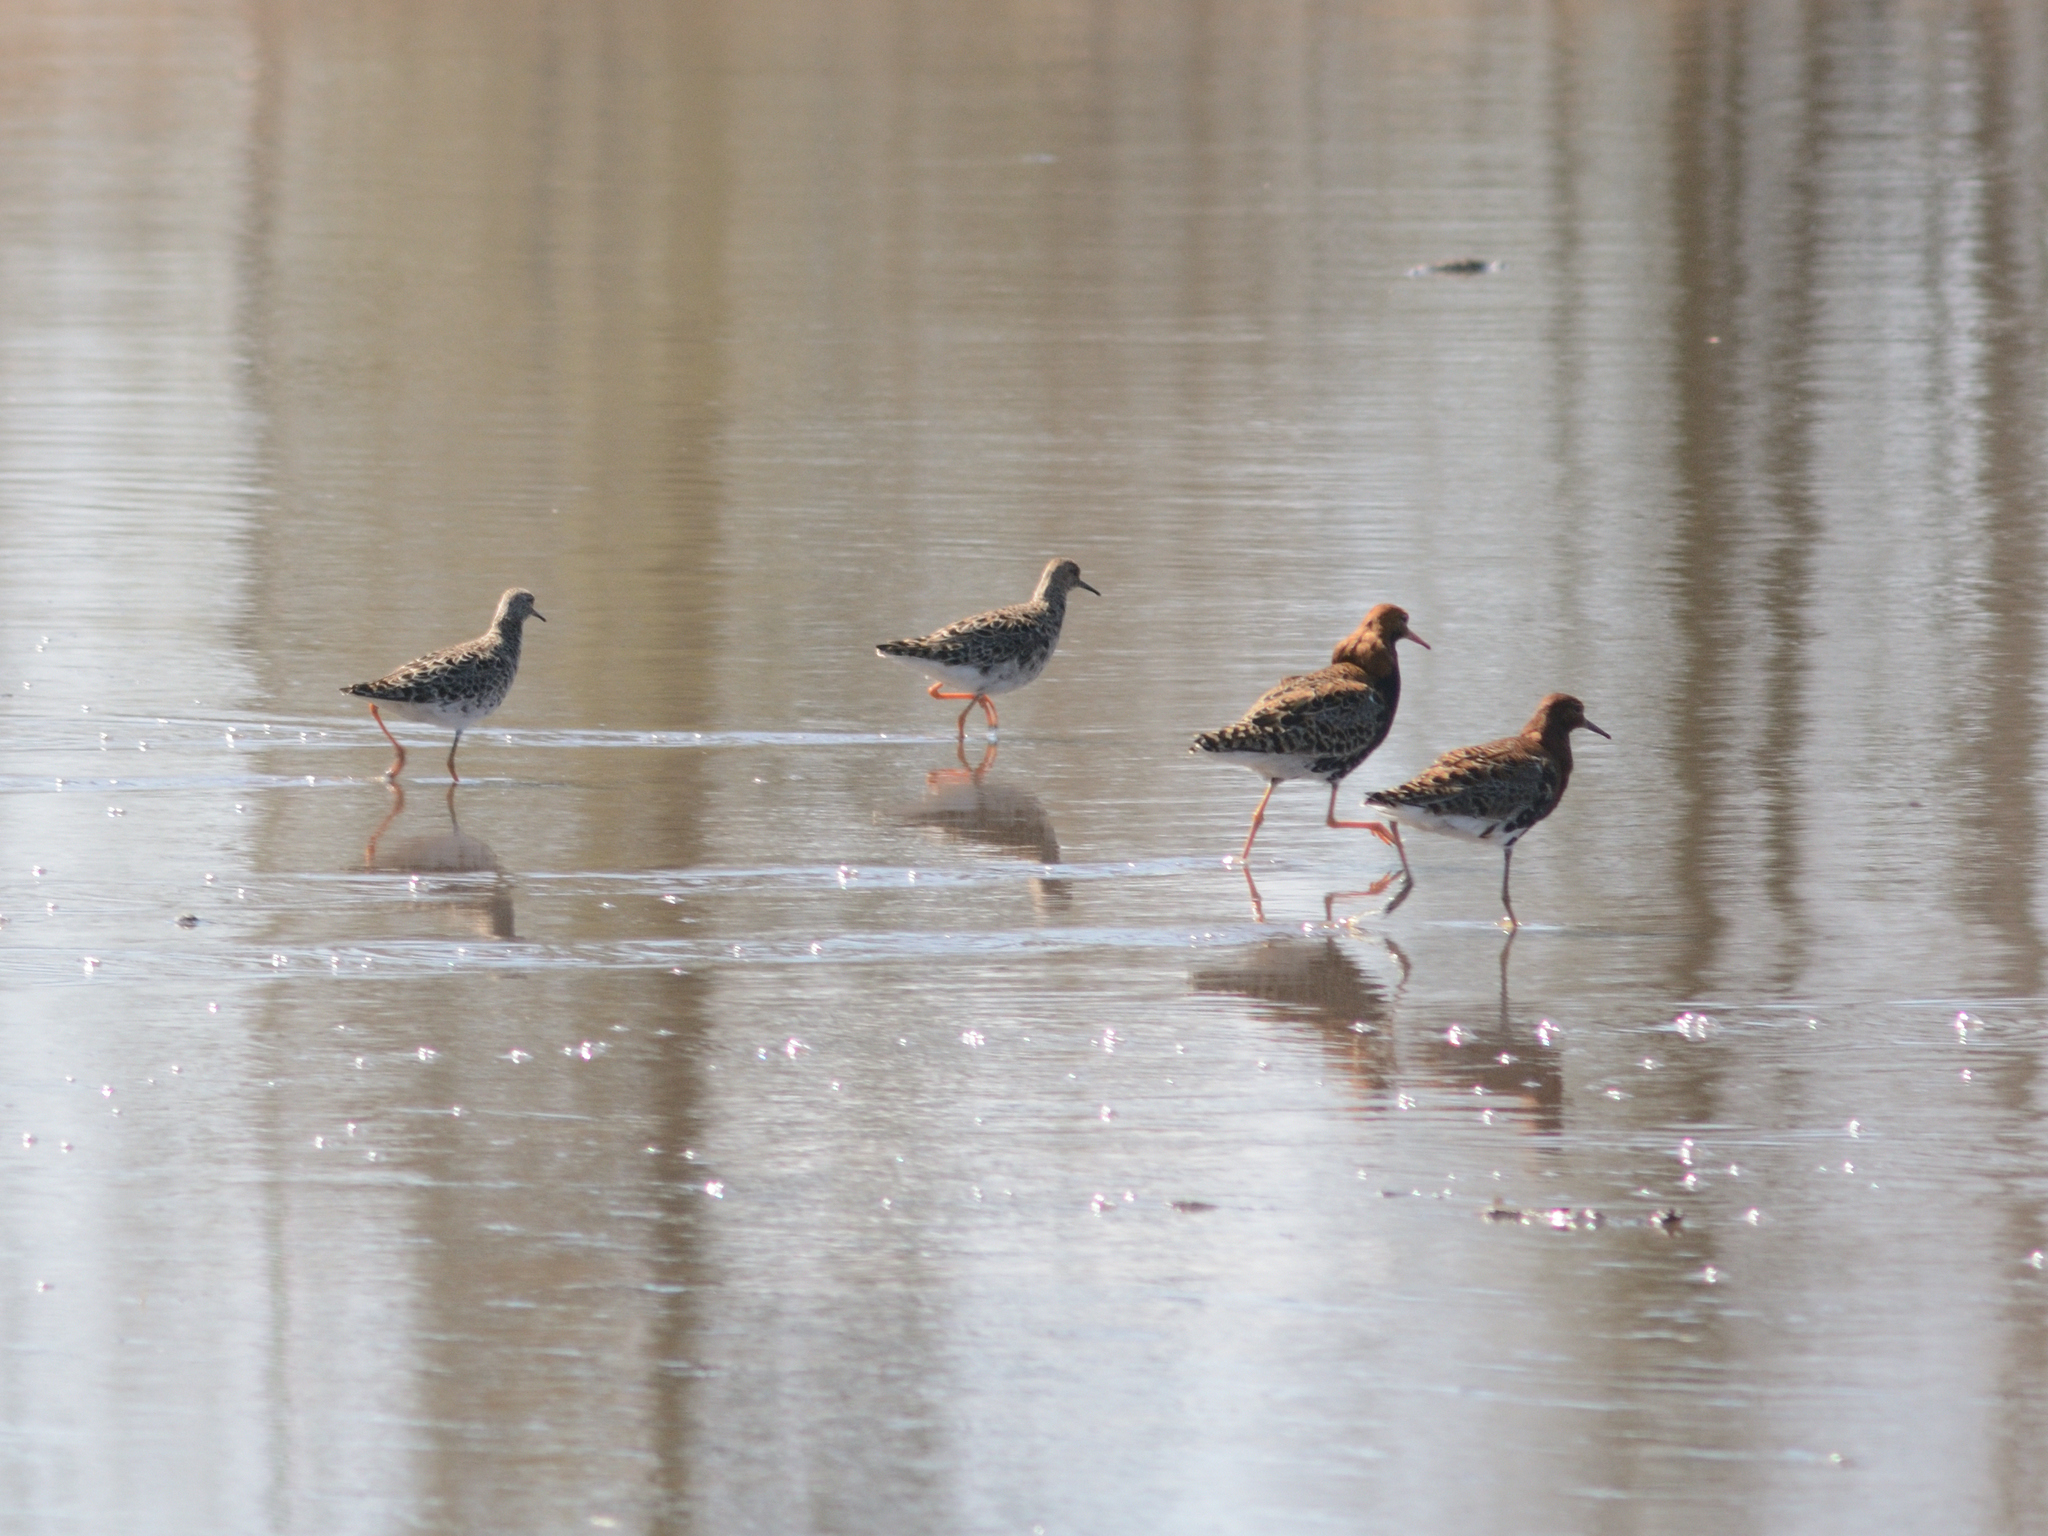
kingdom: Animalia
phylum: Chordata
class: Aves
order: Charadriiformes
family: Scolopacidae
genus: Calidris
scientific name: Calidris pugnax
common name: Ruff
